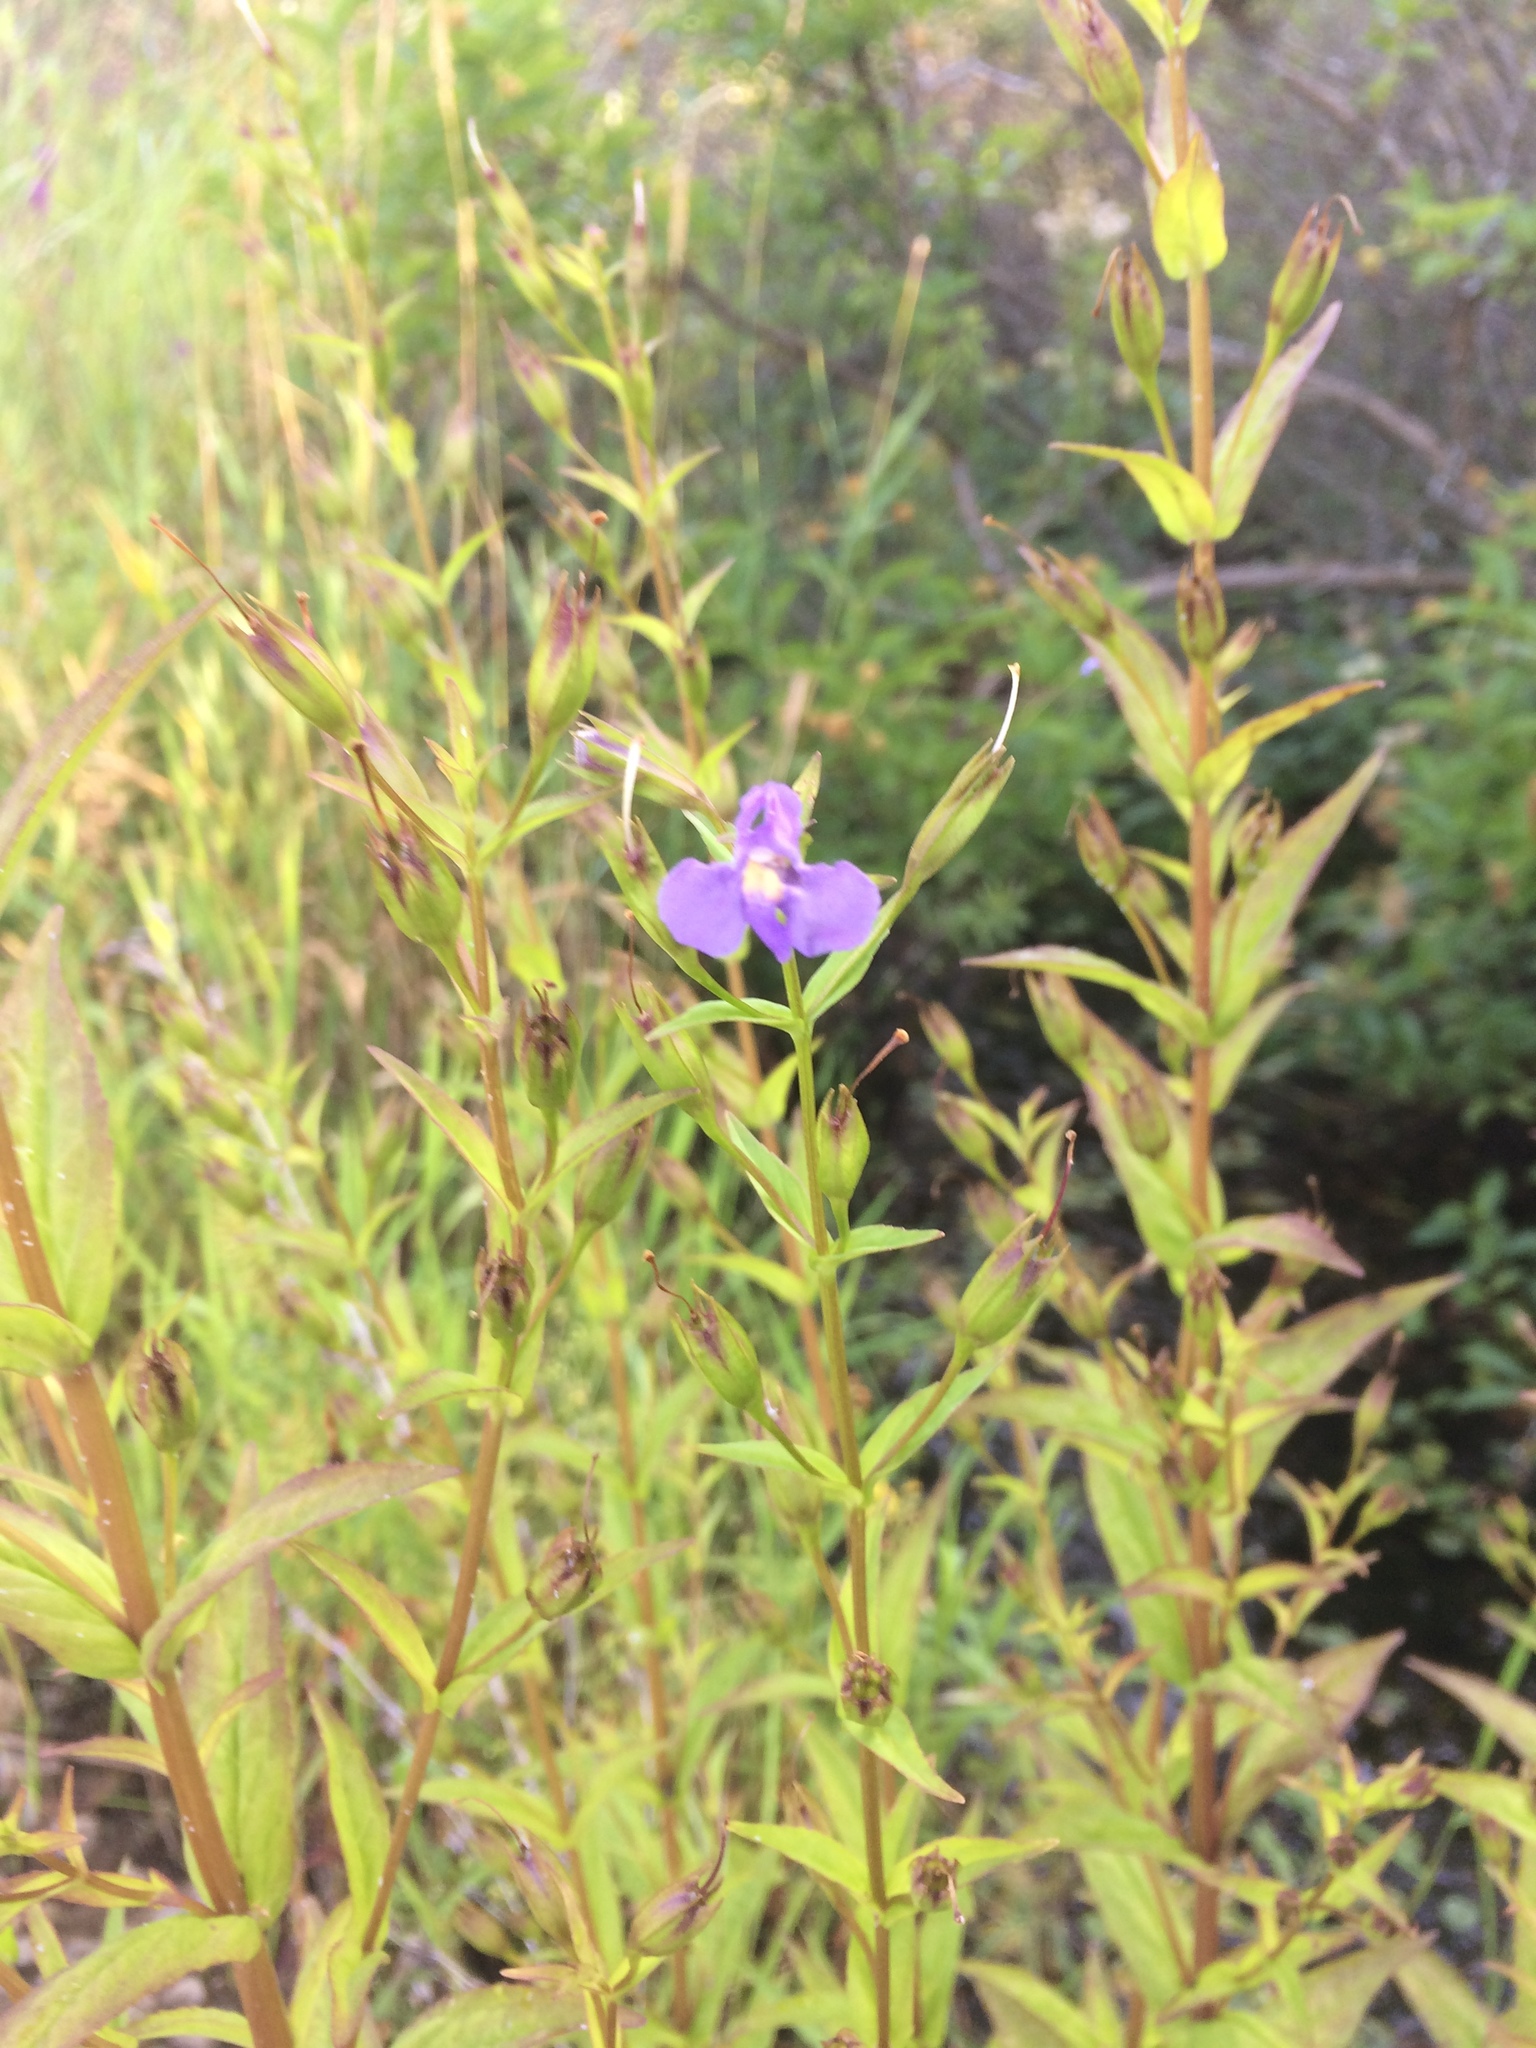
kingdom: Plantae
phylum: Tracheophyta
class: Magnoliopsida
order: Lamiales
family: Phrymaceae
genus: Mimulus
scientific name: Mimulus ringens
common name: Allegheny monkeyflower
